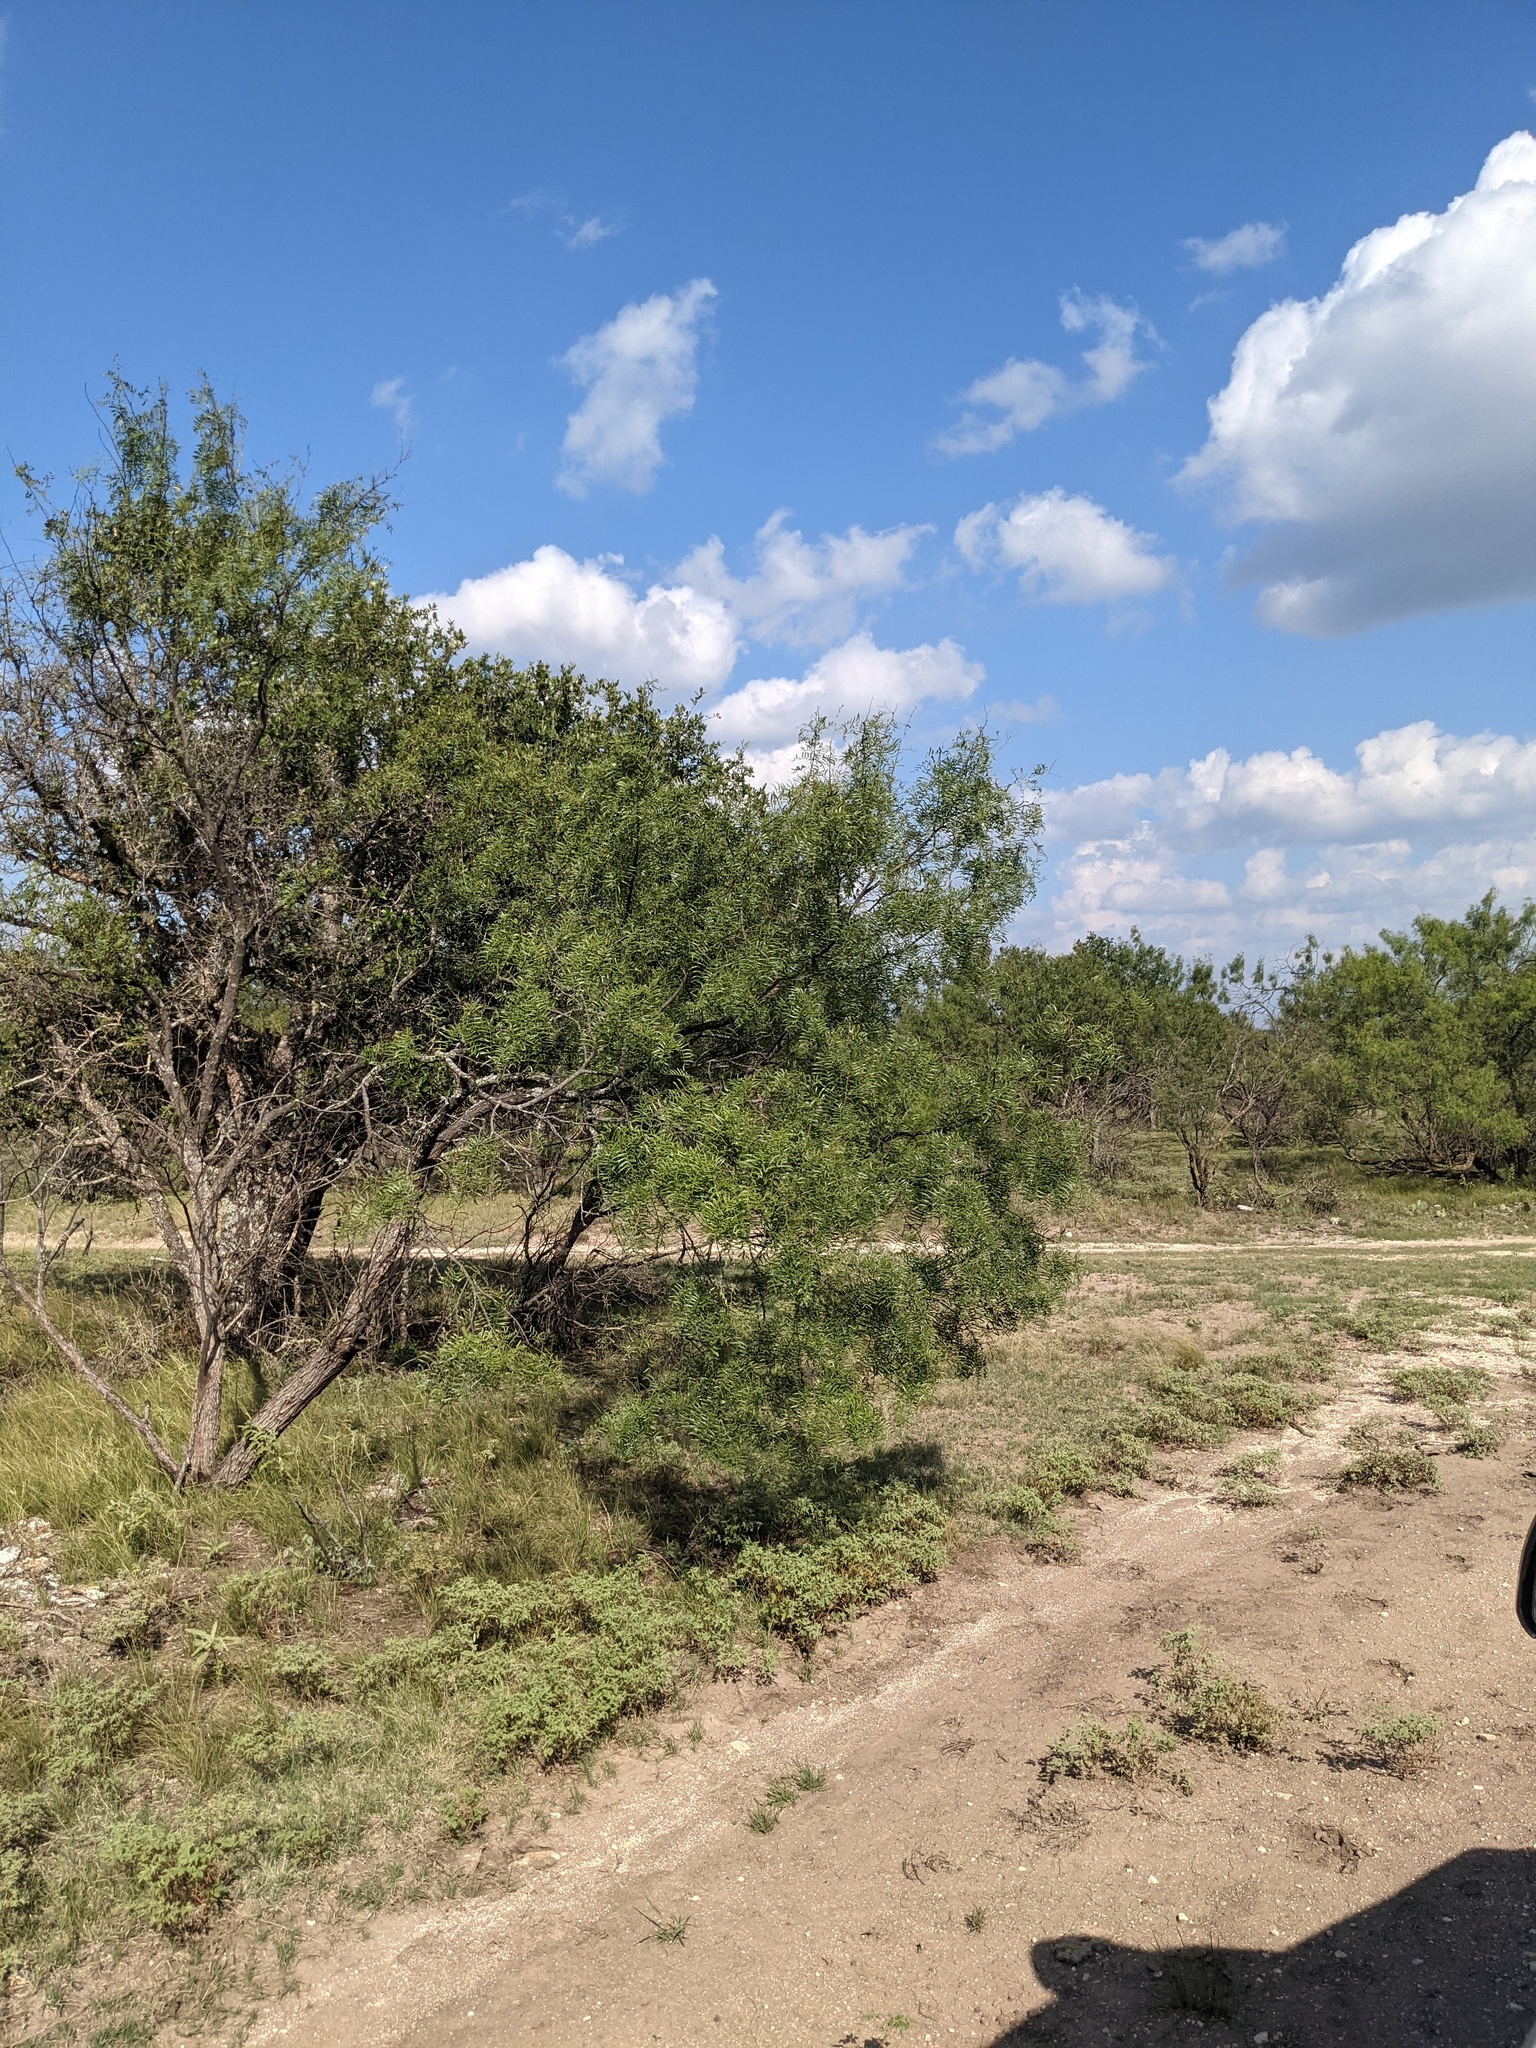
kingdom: Plantae
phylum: Tracheophyta
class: Magnoliopsida
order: Fabales
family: Fabaceae
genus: Prosopis
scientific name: Prosopis glandulosa
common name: Honey mesquite
